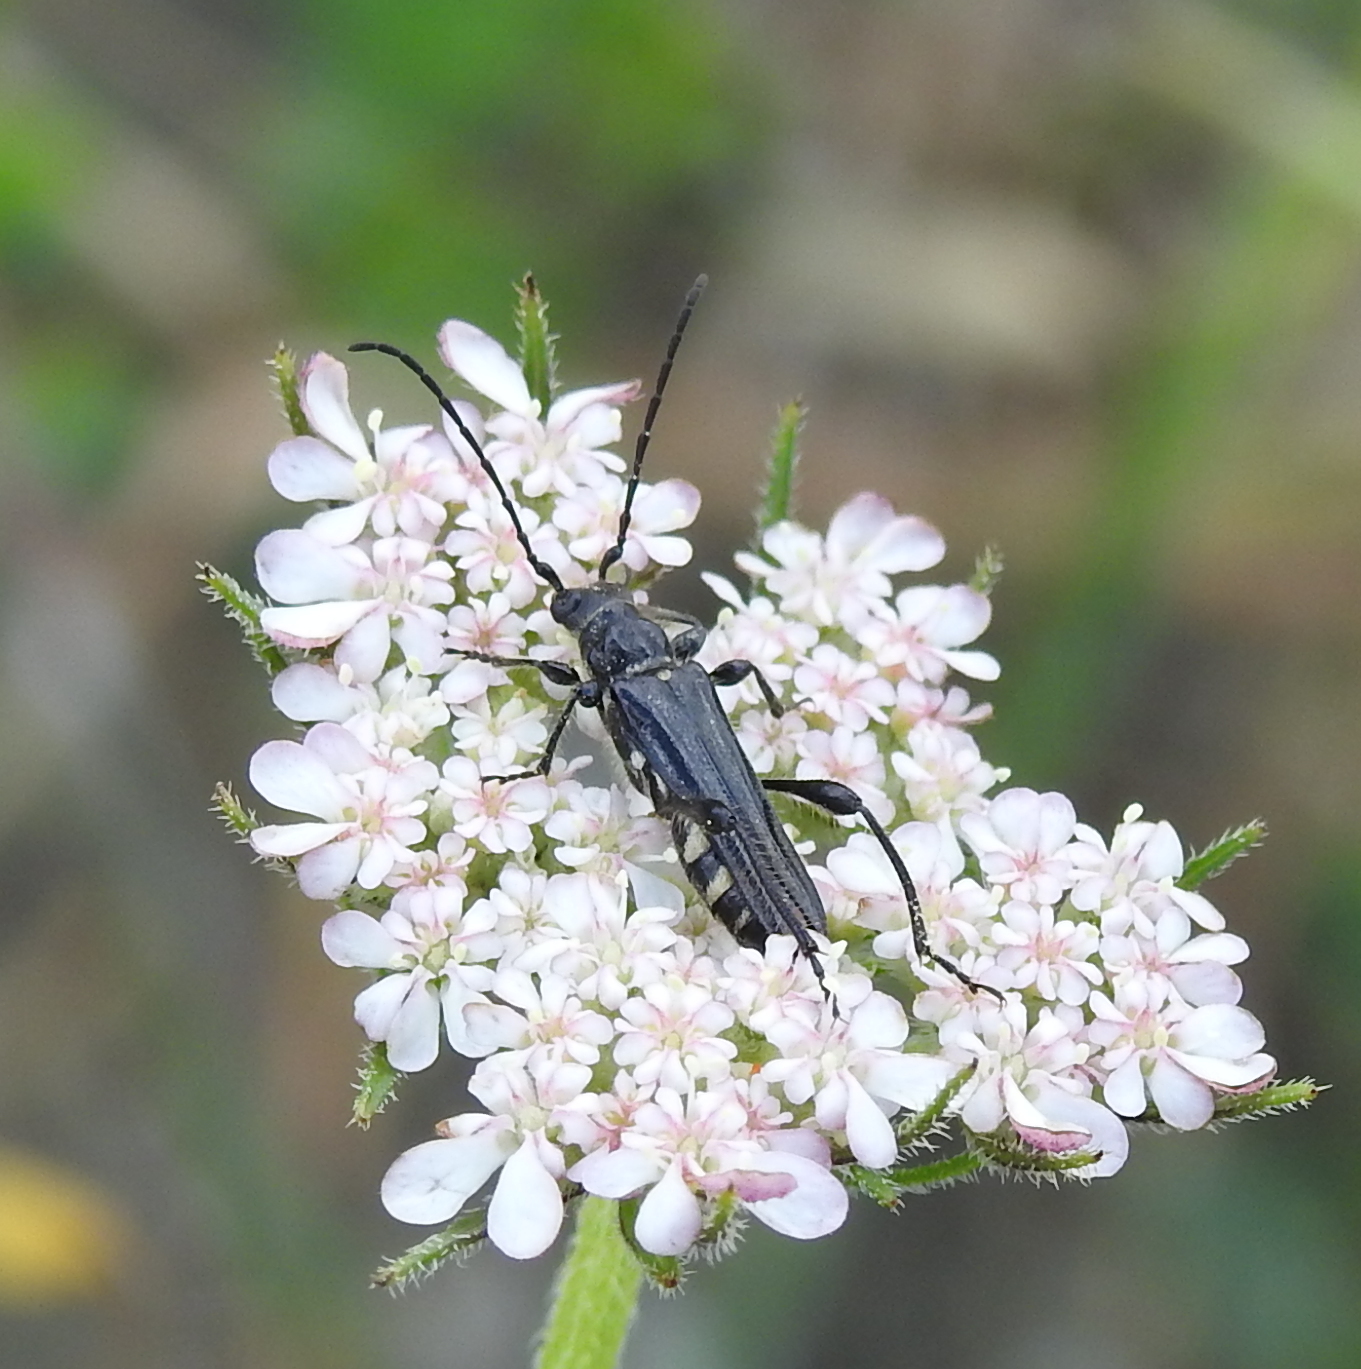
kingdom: Animalia
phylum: Arthropoda
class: Insecta
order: Coleoptera
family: Cerambycidae
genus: Stenopterus
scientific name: Stenopterus ater
